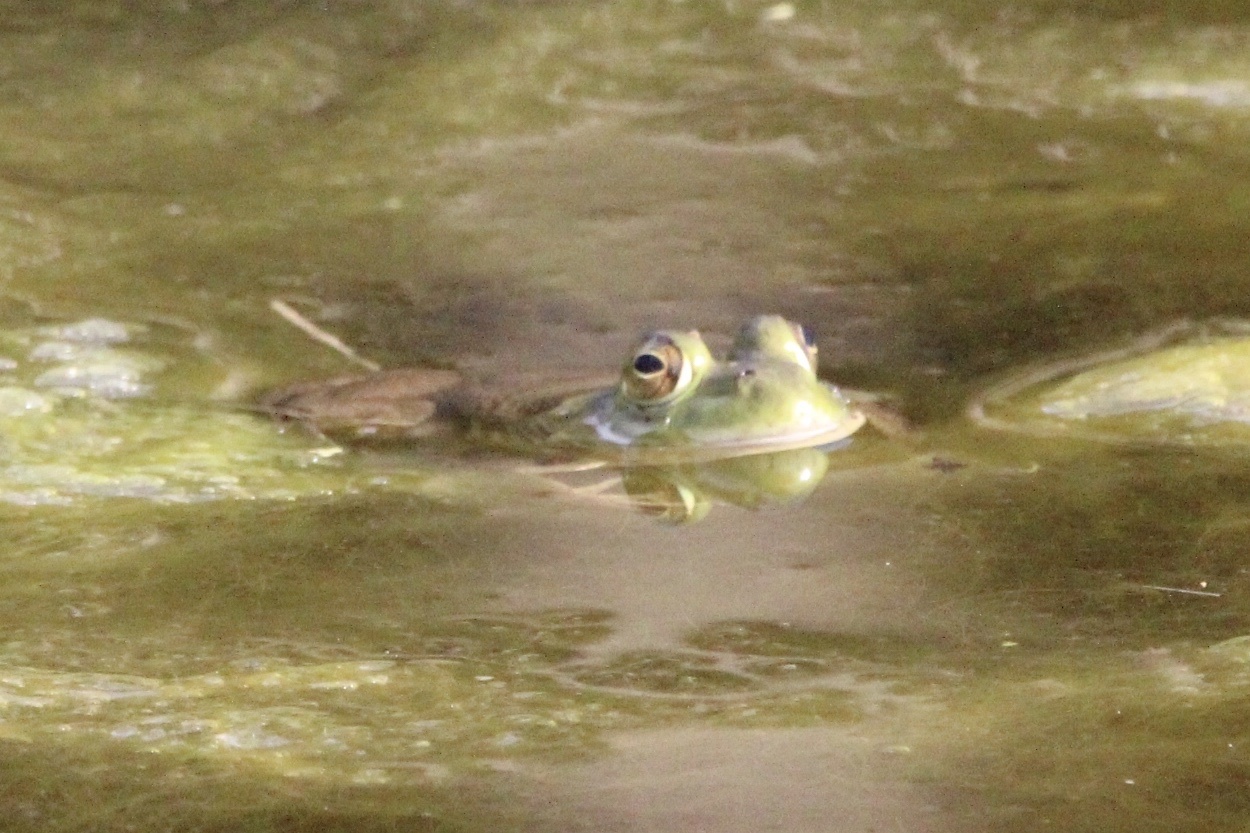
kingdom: Animalia
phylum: Chordata
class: Amphibia
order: Anura
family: Ranidae
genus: Lithobates
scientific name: Lithobates catesbeianus
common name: American bullfrog
